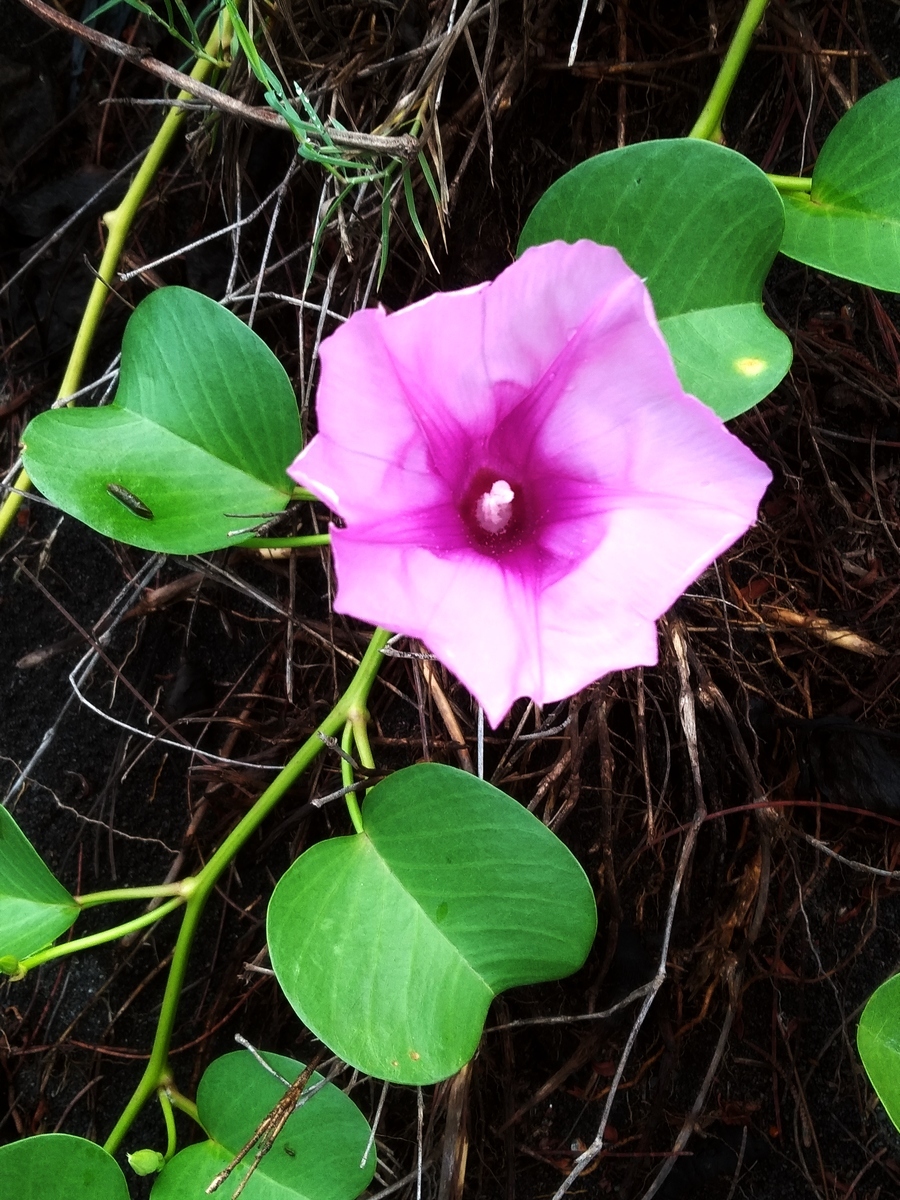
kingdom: Plantae
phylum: Tracheophyta
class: Magnoliopsida
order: Solanales
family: Convolvulaceae
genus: Ipomoea
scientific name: Ipomoea pes-caprae
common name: Beach morning glory
